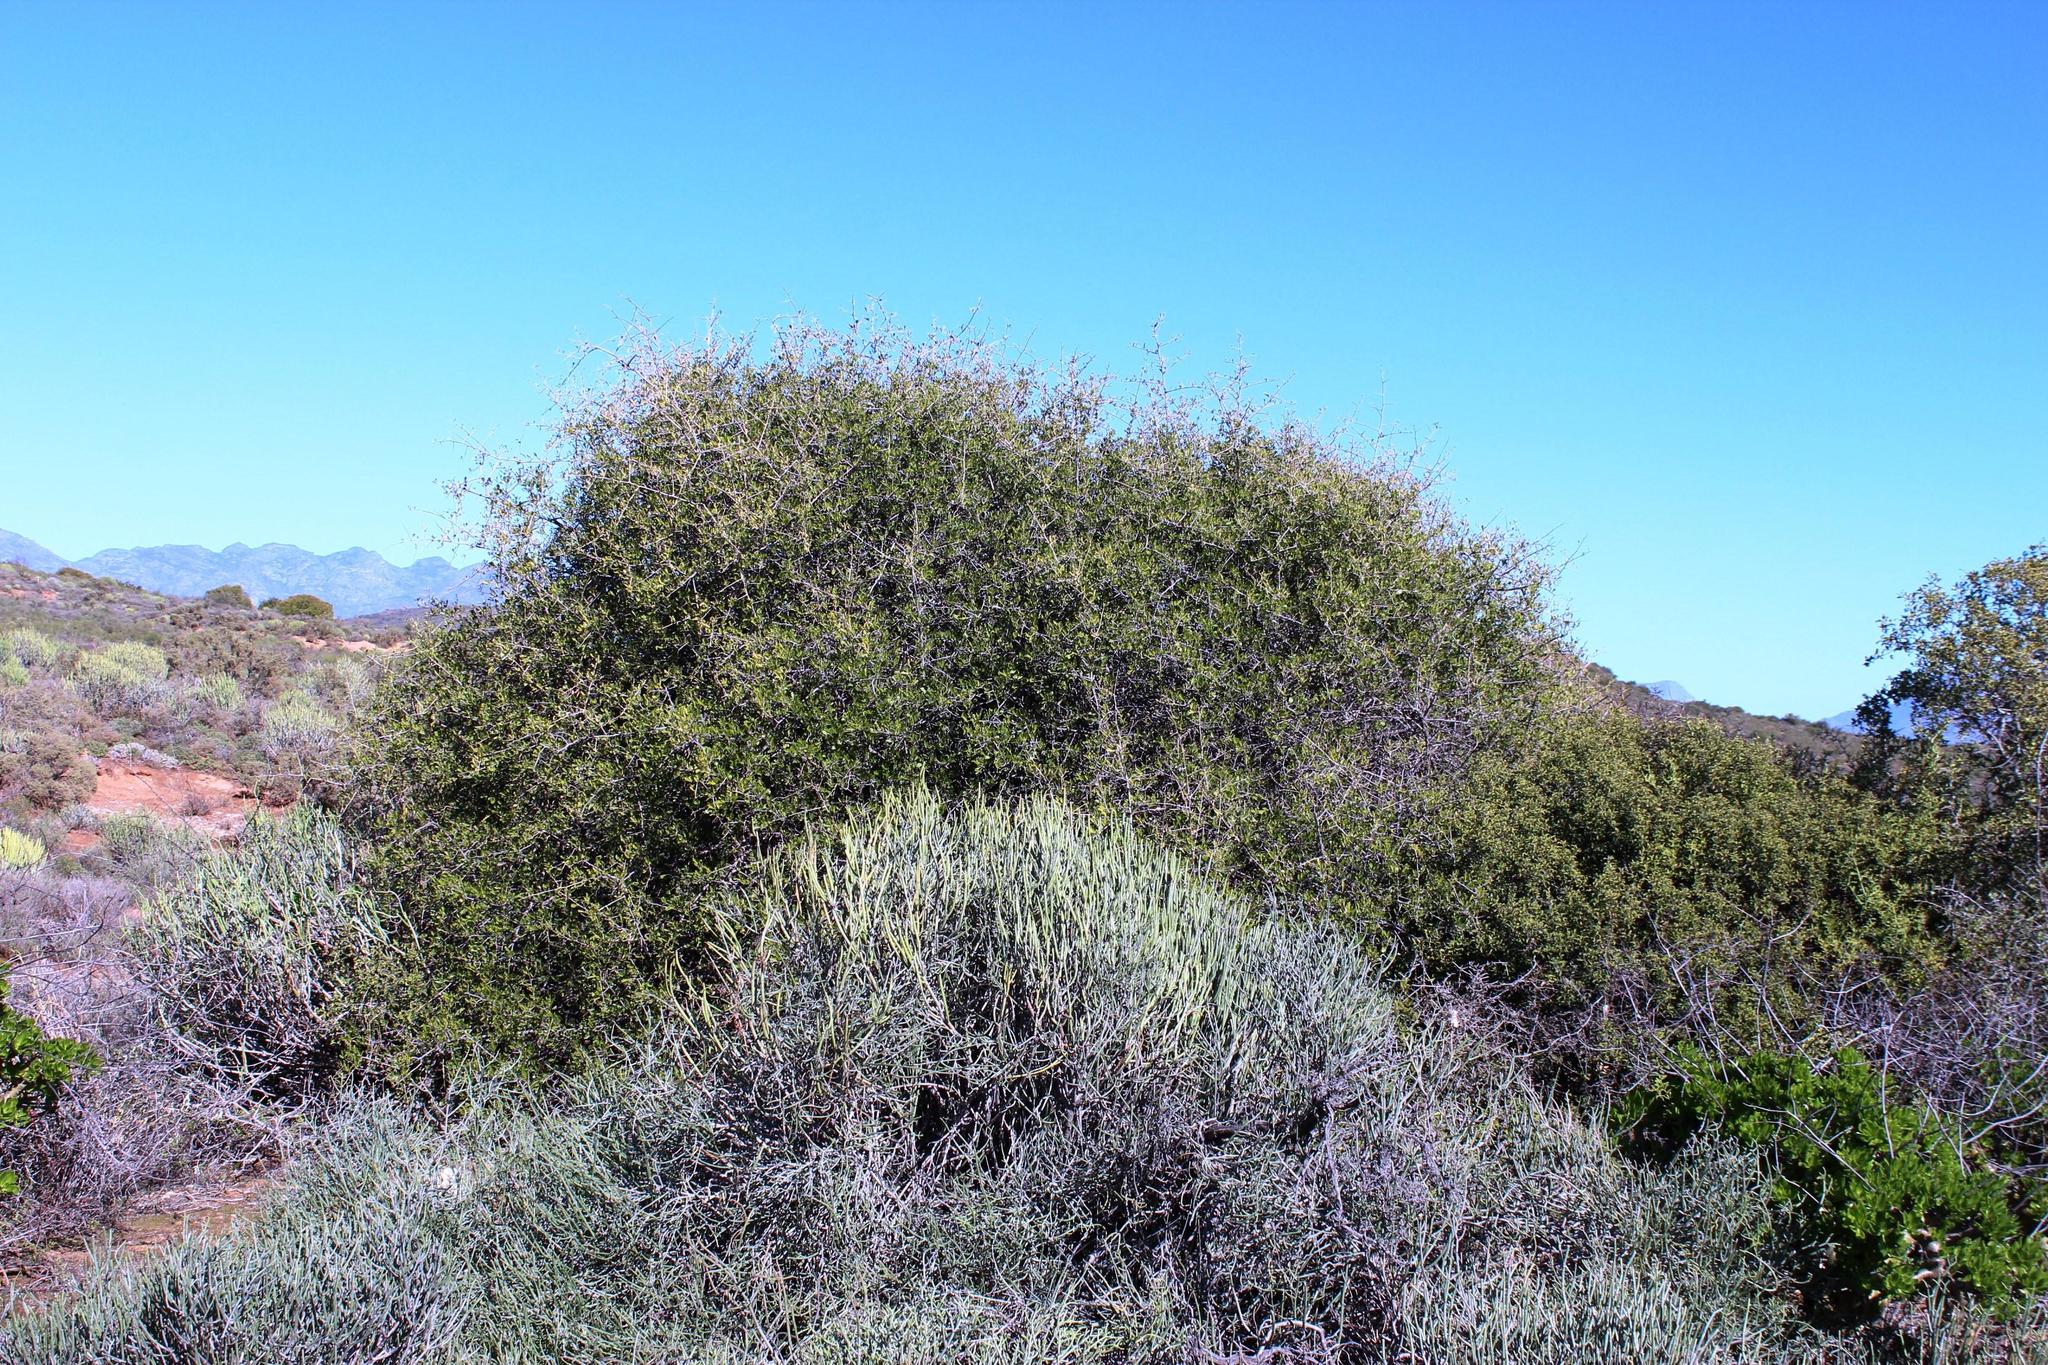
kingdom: Plantae
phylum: Tracheophyta
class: Magnoliopsida
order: Sapindales
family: Anacardiaceae
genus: Searsia
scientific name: Searsia longispina
